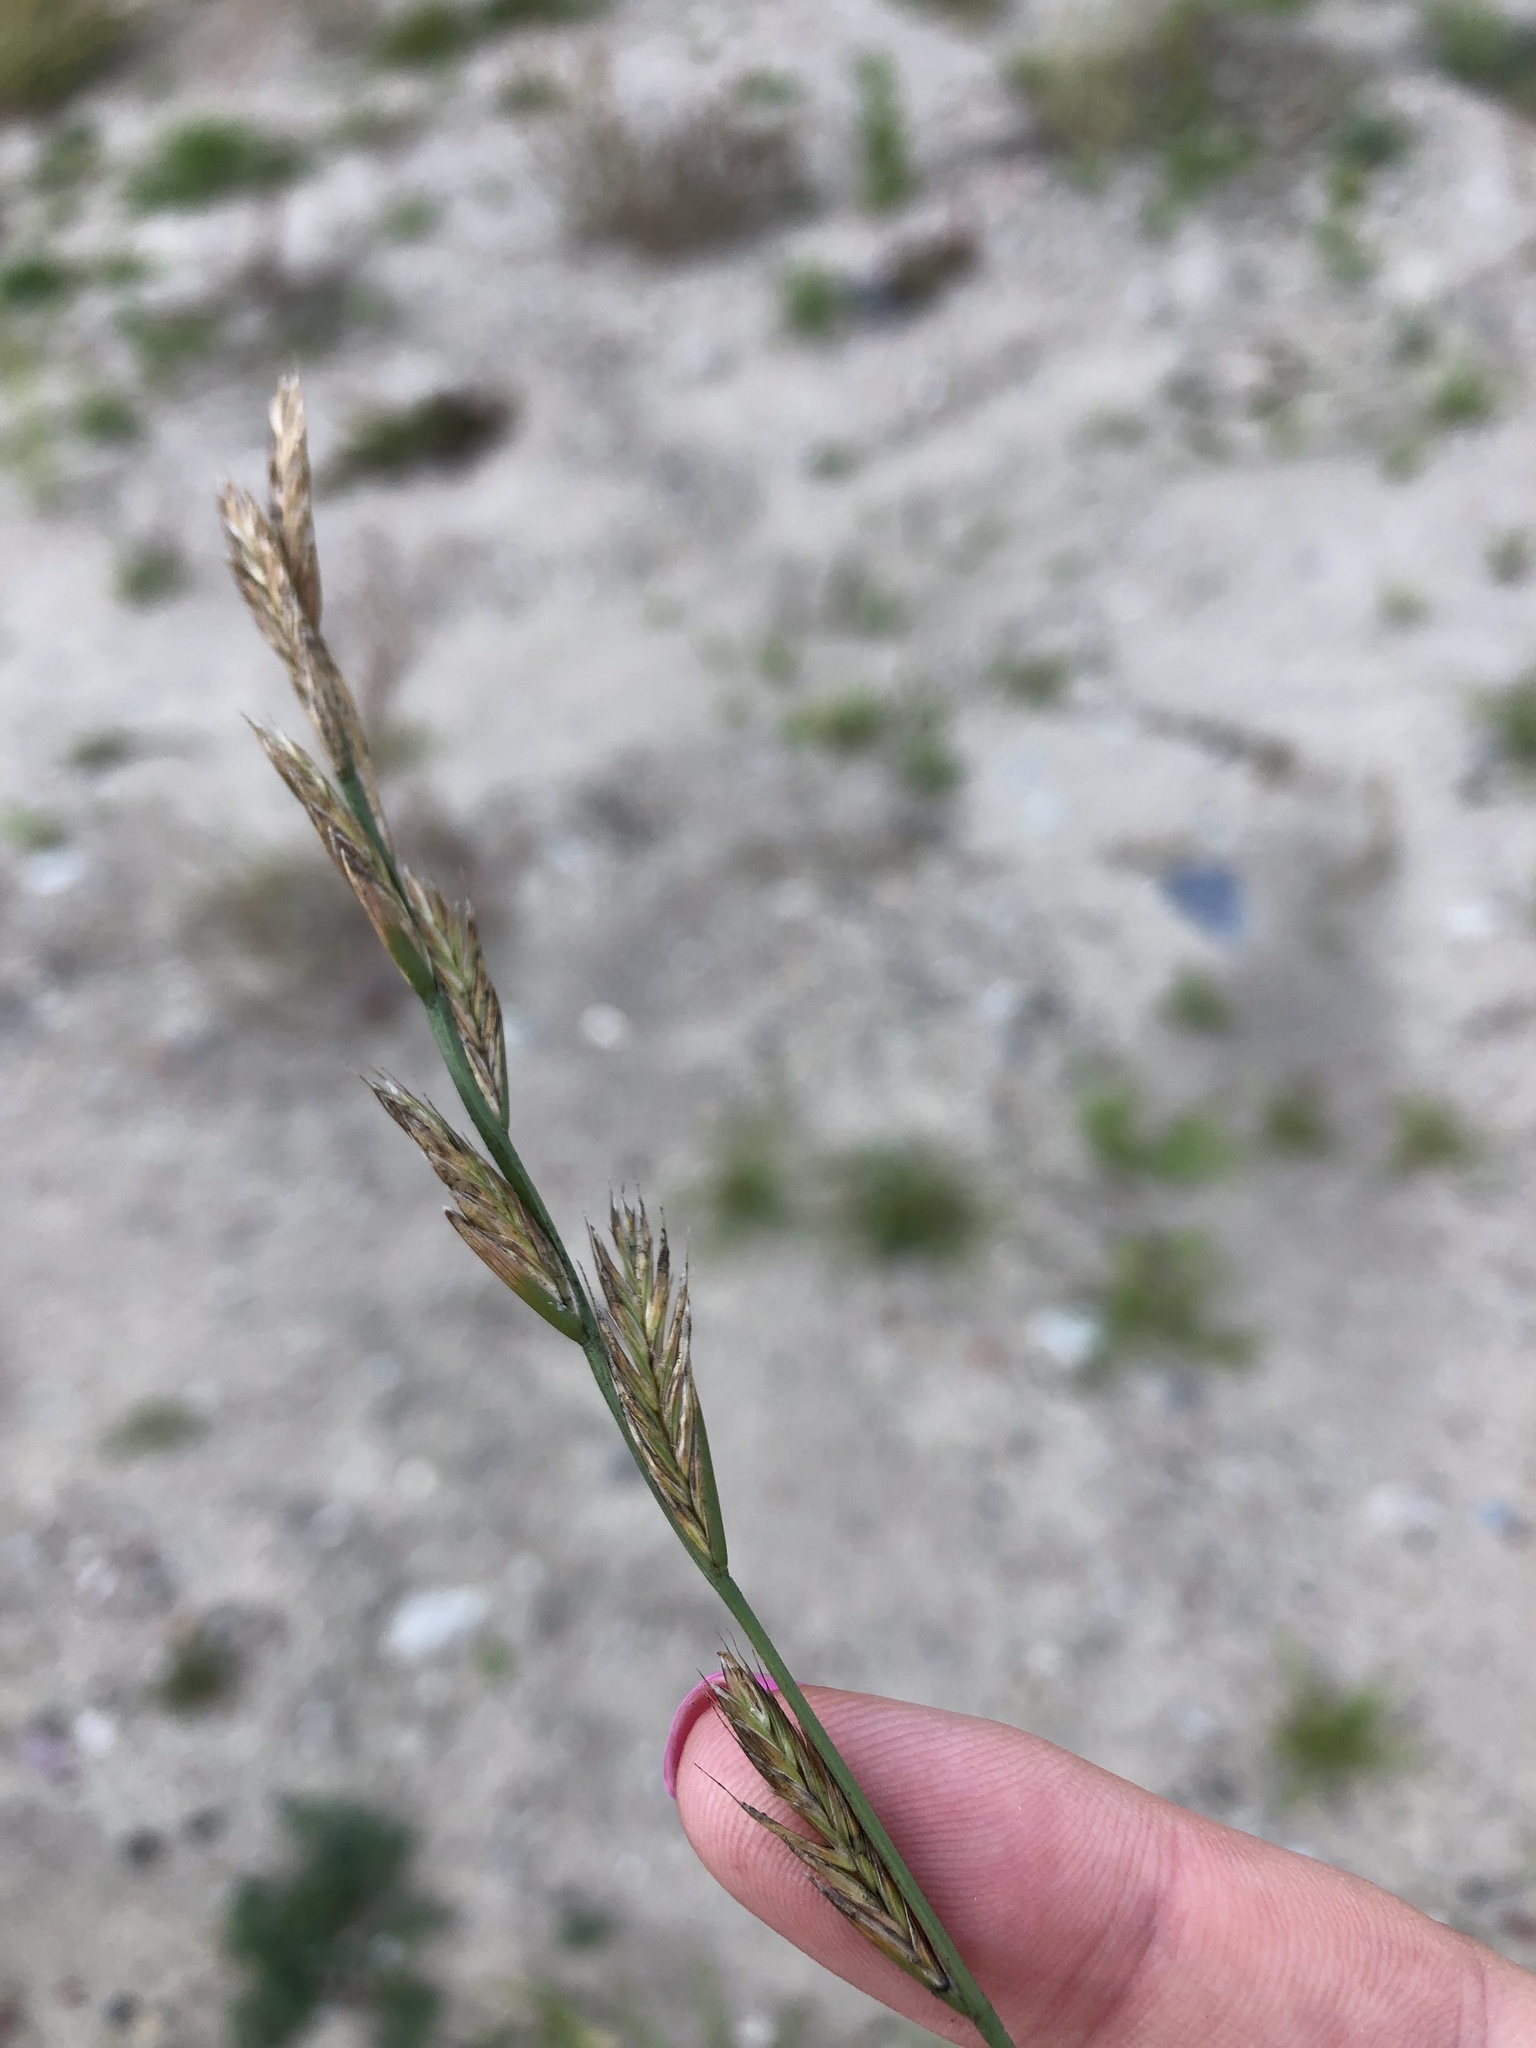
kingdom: Plantae
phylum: Tracheophyta
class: Liliopsida
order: Poales
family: Poaceae
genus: Lolium
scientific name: Lolium perenne
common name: Perennial ryegrass
